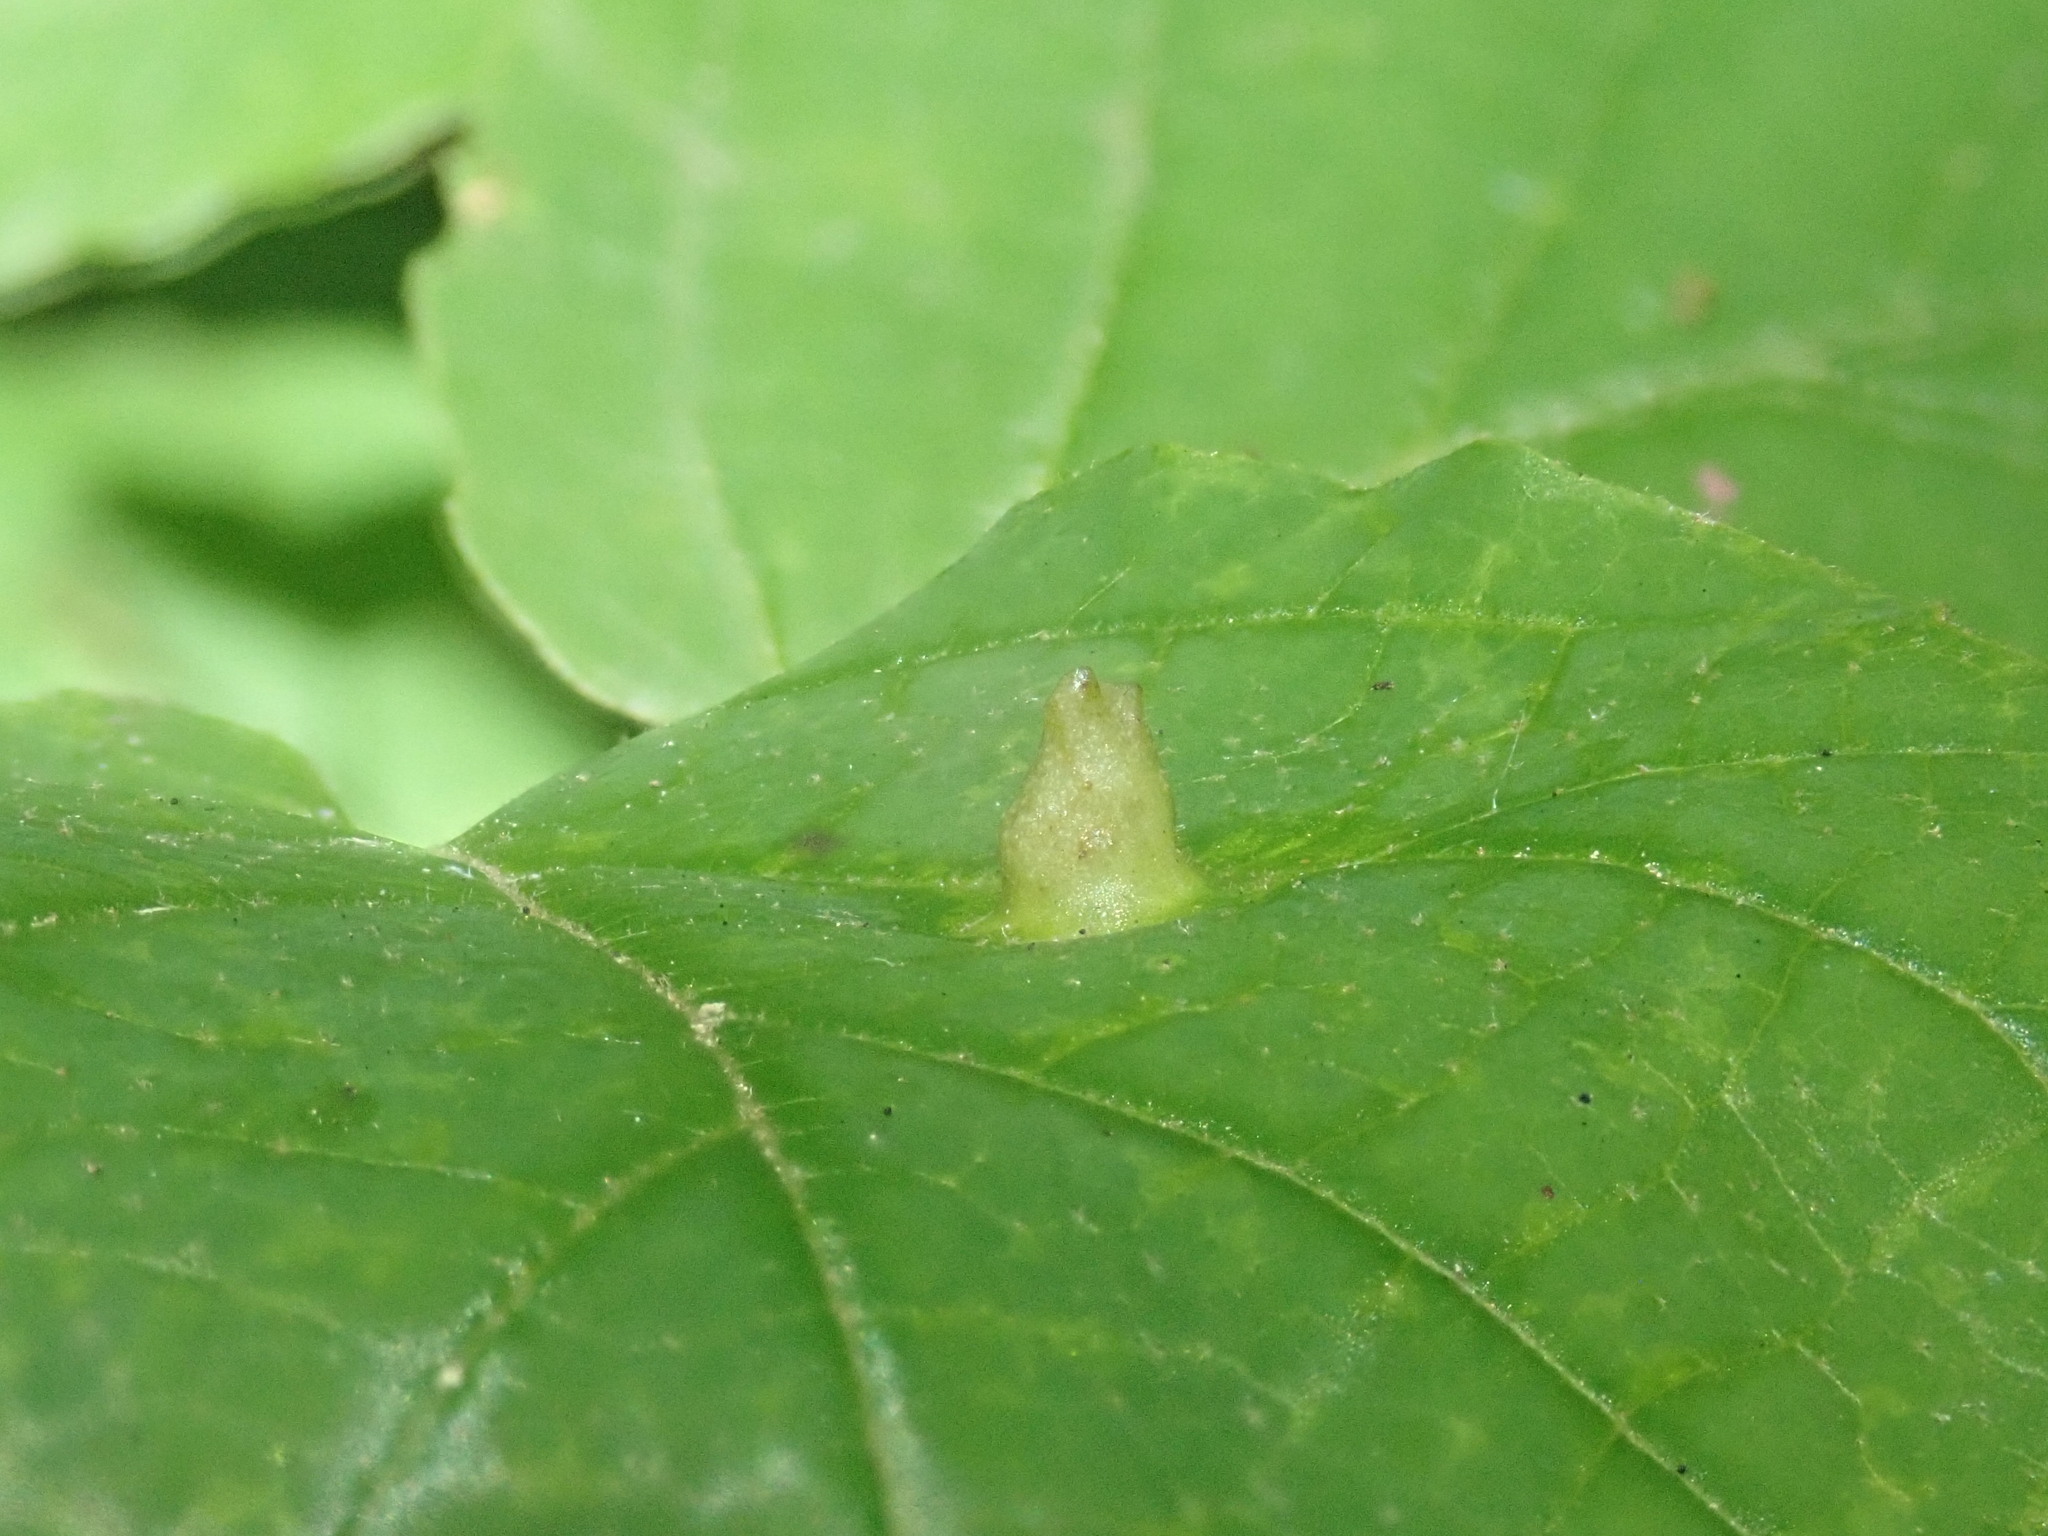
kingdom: Animalia
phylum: Arthropoda
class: Insecta
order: Hemiptera
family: Aphididae
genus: Hormaphis
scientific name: Hormaphis hamamelidis
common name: Witch-hazel cone gall aphid
